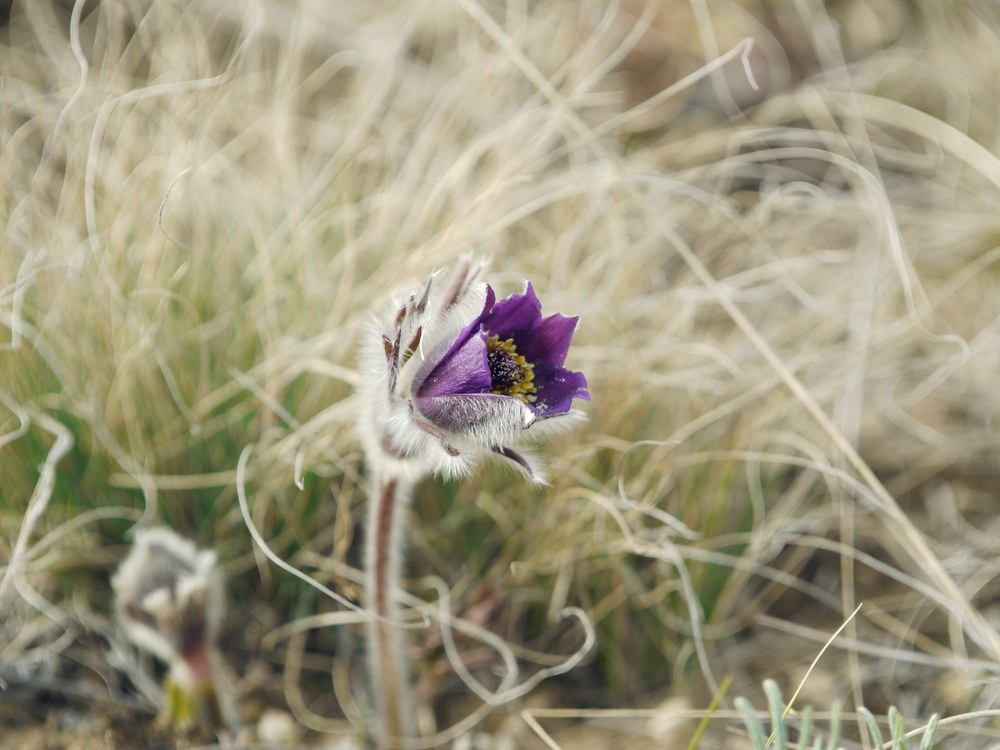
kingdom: Plantae
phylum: Tracheophyta
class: Magnoliopsida
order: Ranunculales
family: Ranunculaceae
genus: Pulsatilla
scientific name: Pulsatilla pratensis
